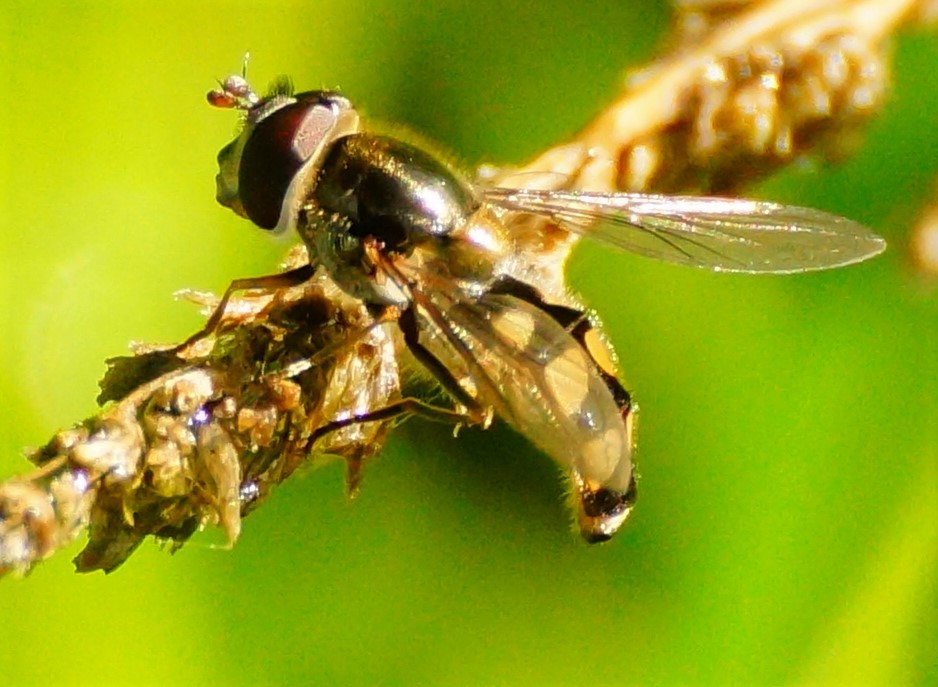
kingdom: Animalia
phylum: Arthropoda
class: Insecta
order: Diptera
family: Syrphidae
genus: Melangyna
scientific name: Melangyna viridiceps
